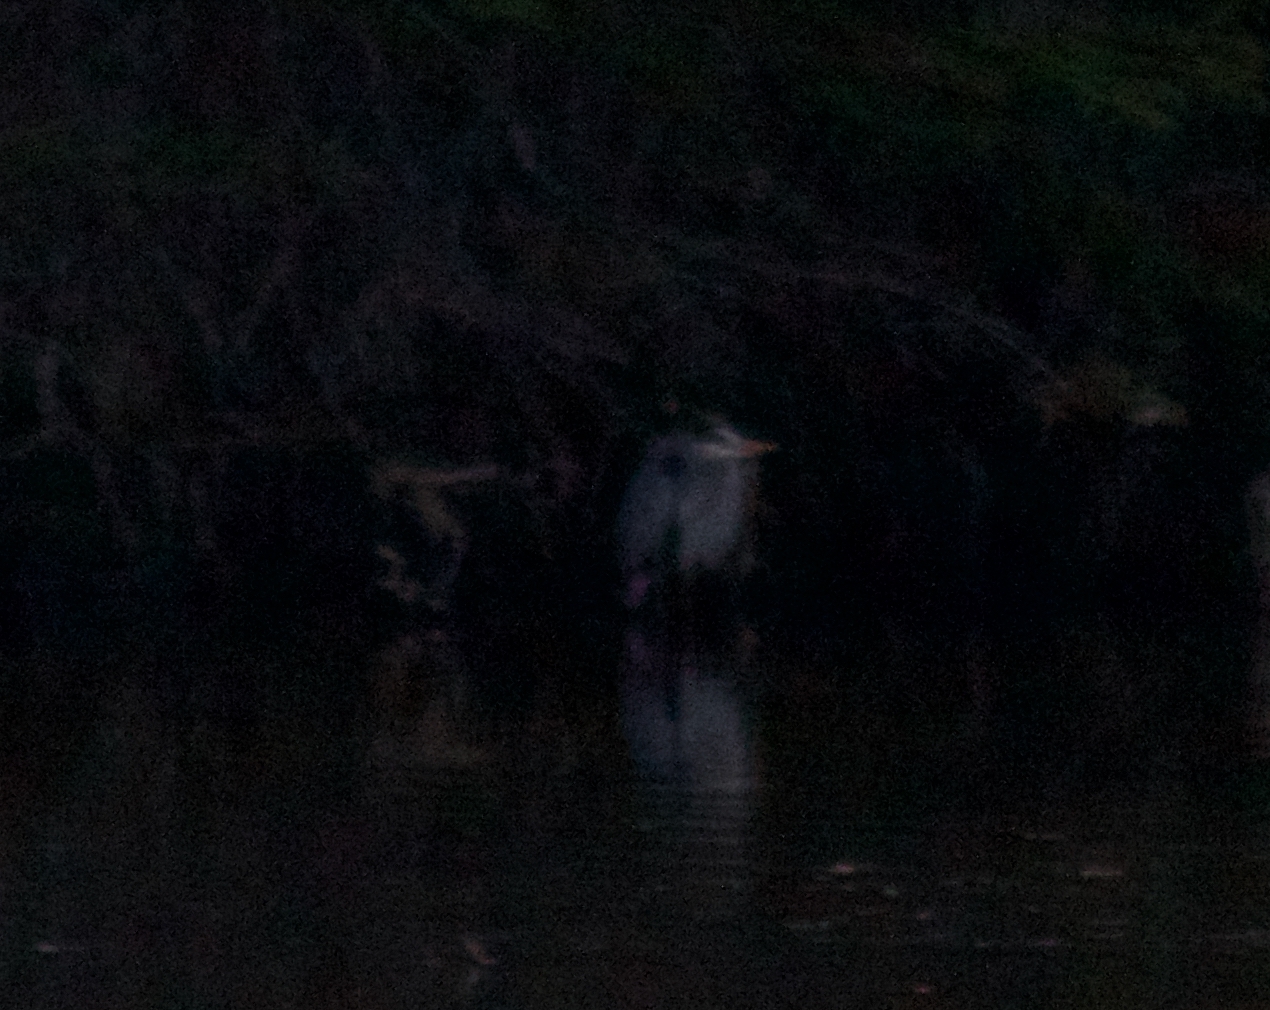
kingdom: Animalia
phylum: Chordata
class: Aves
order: Pelecaniformes
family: Ardeidae
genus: Ardea
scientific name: Ardea herodias
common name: Great blue heron
